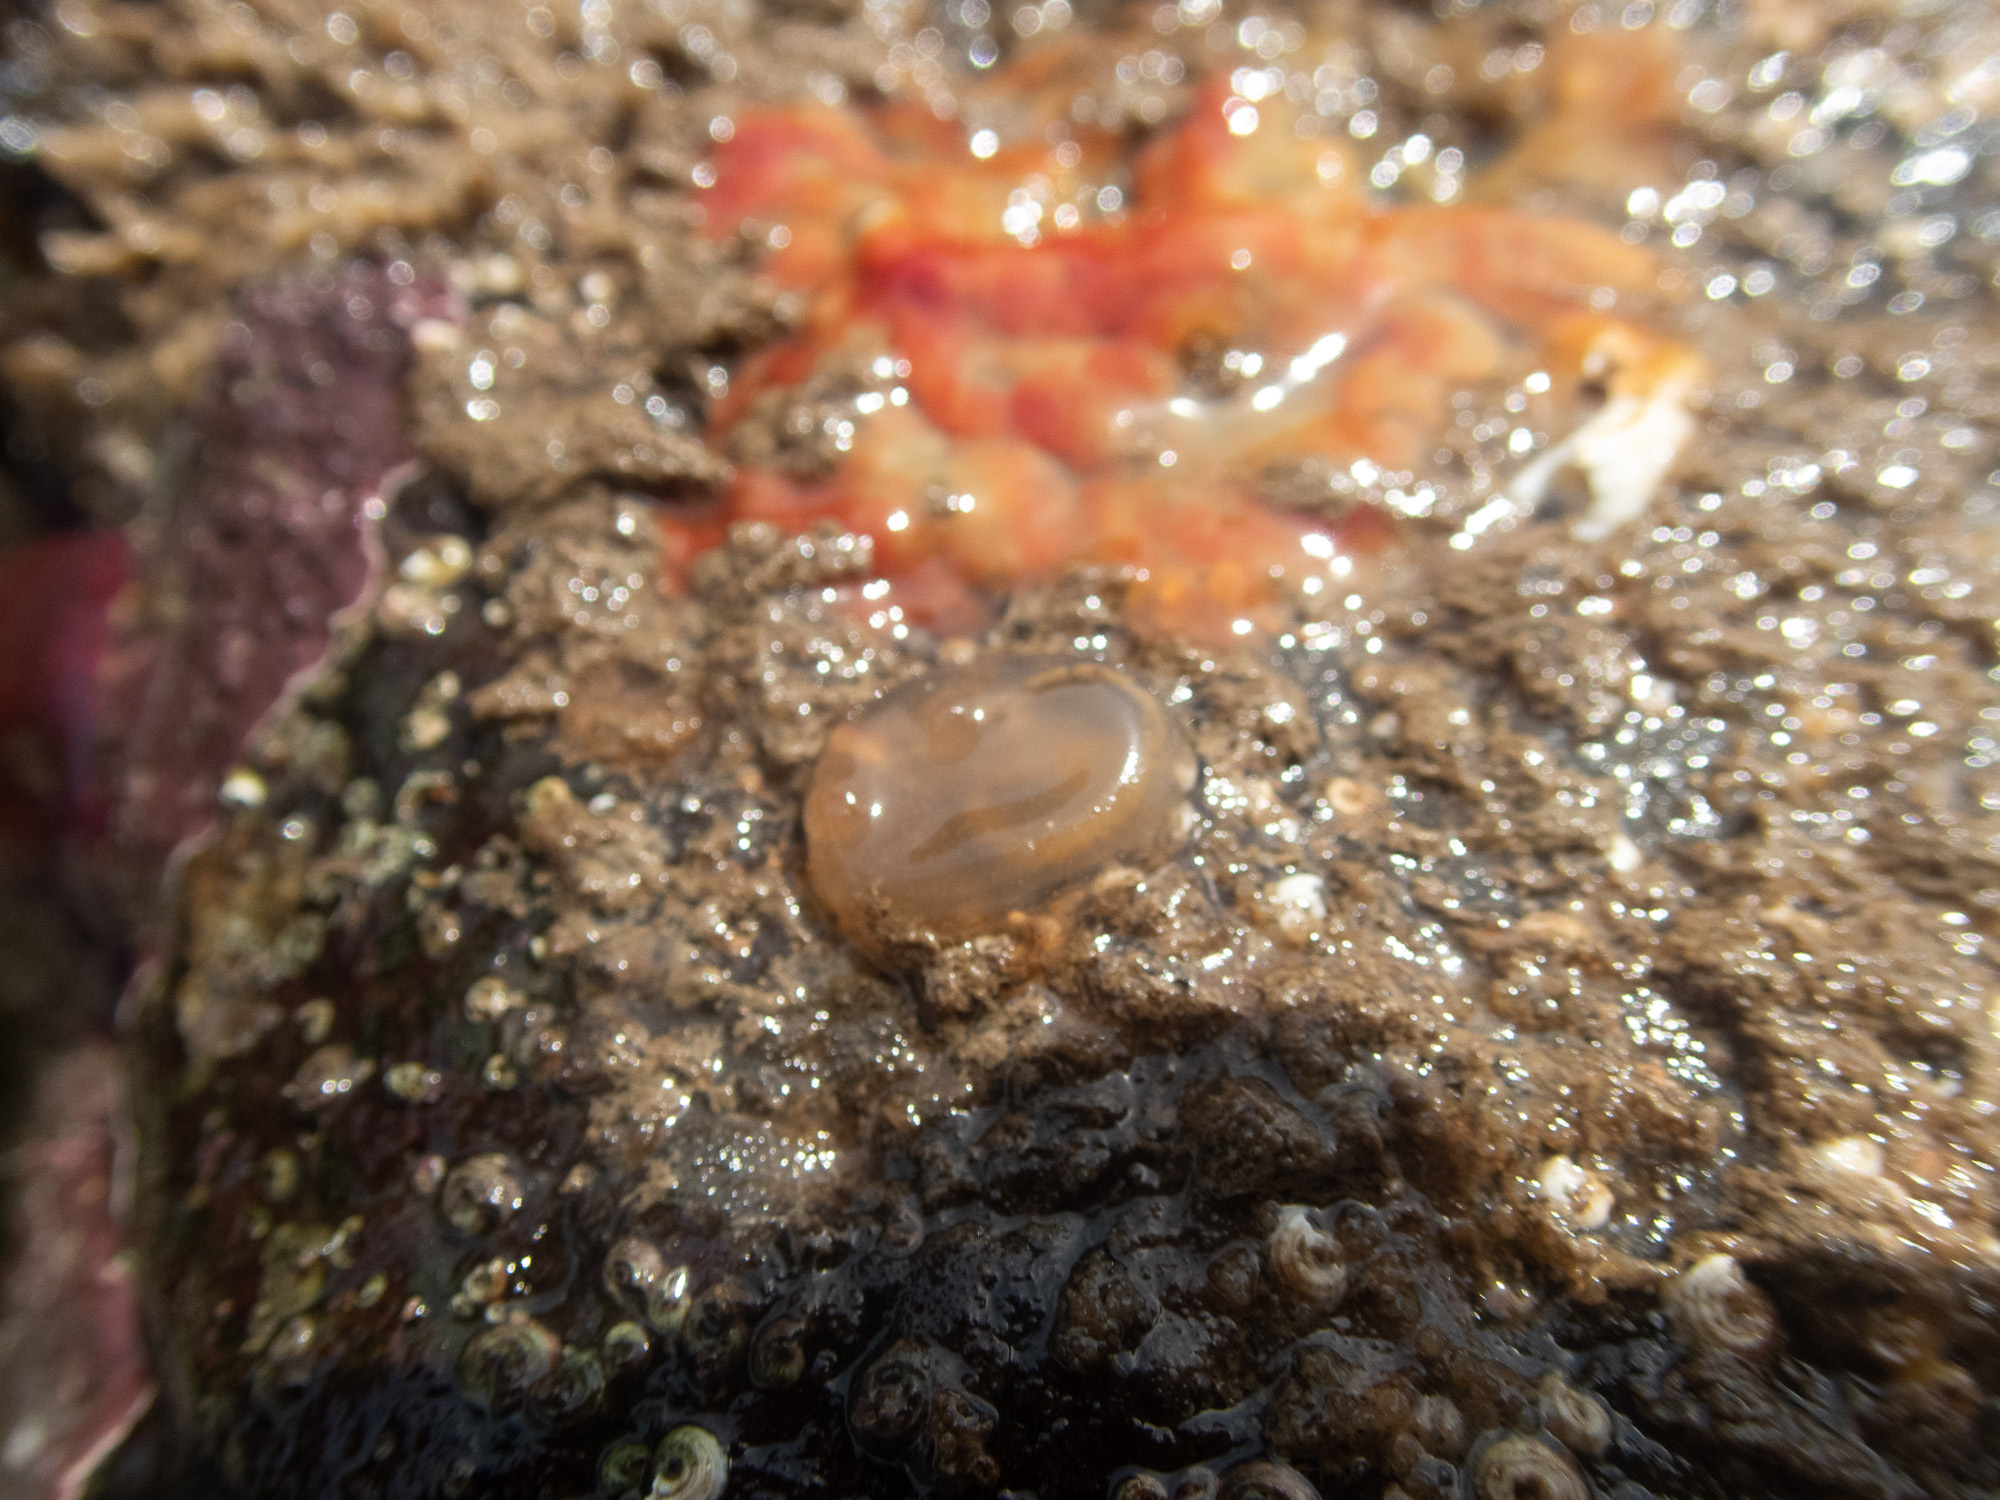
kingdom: Animalia
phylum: Chordata
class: Ascidiacea
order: Phlebobranchia
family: Corellidae
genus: Corella
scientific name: Corella eumyota
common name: Orange-tipped sea squirt
